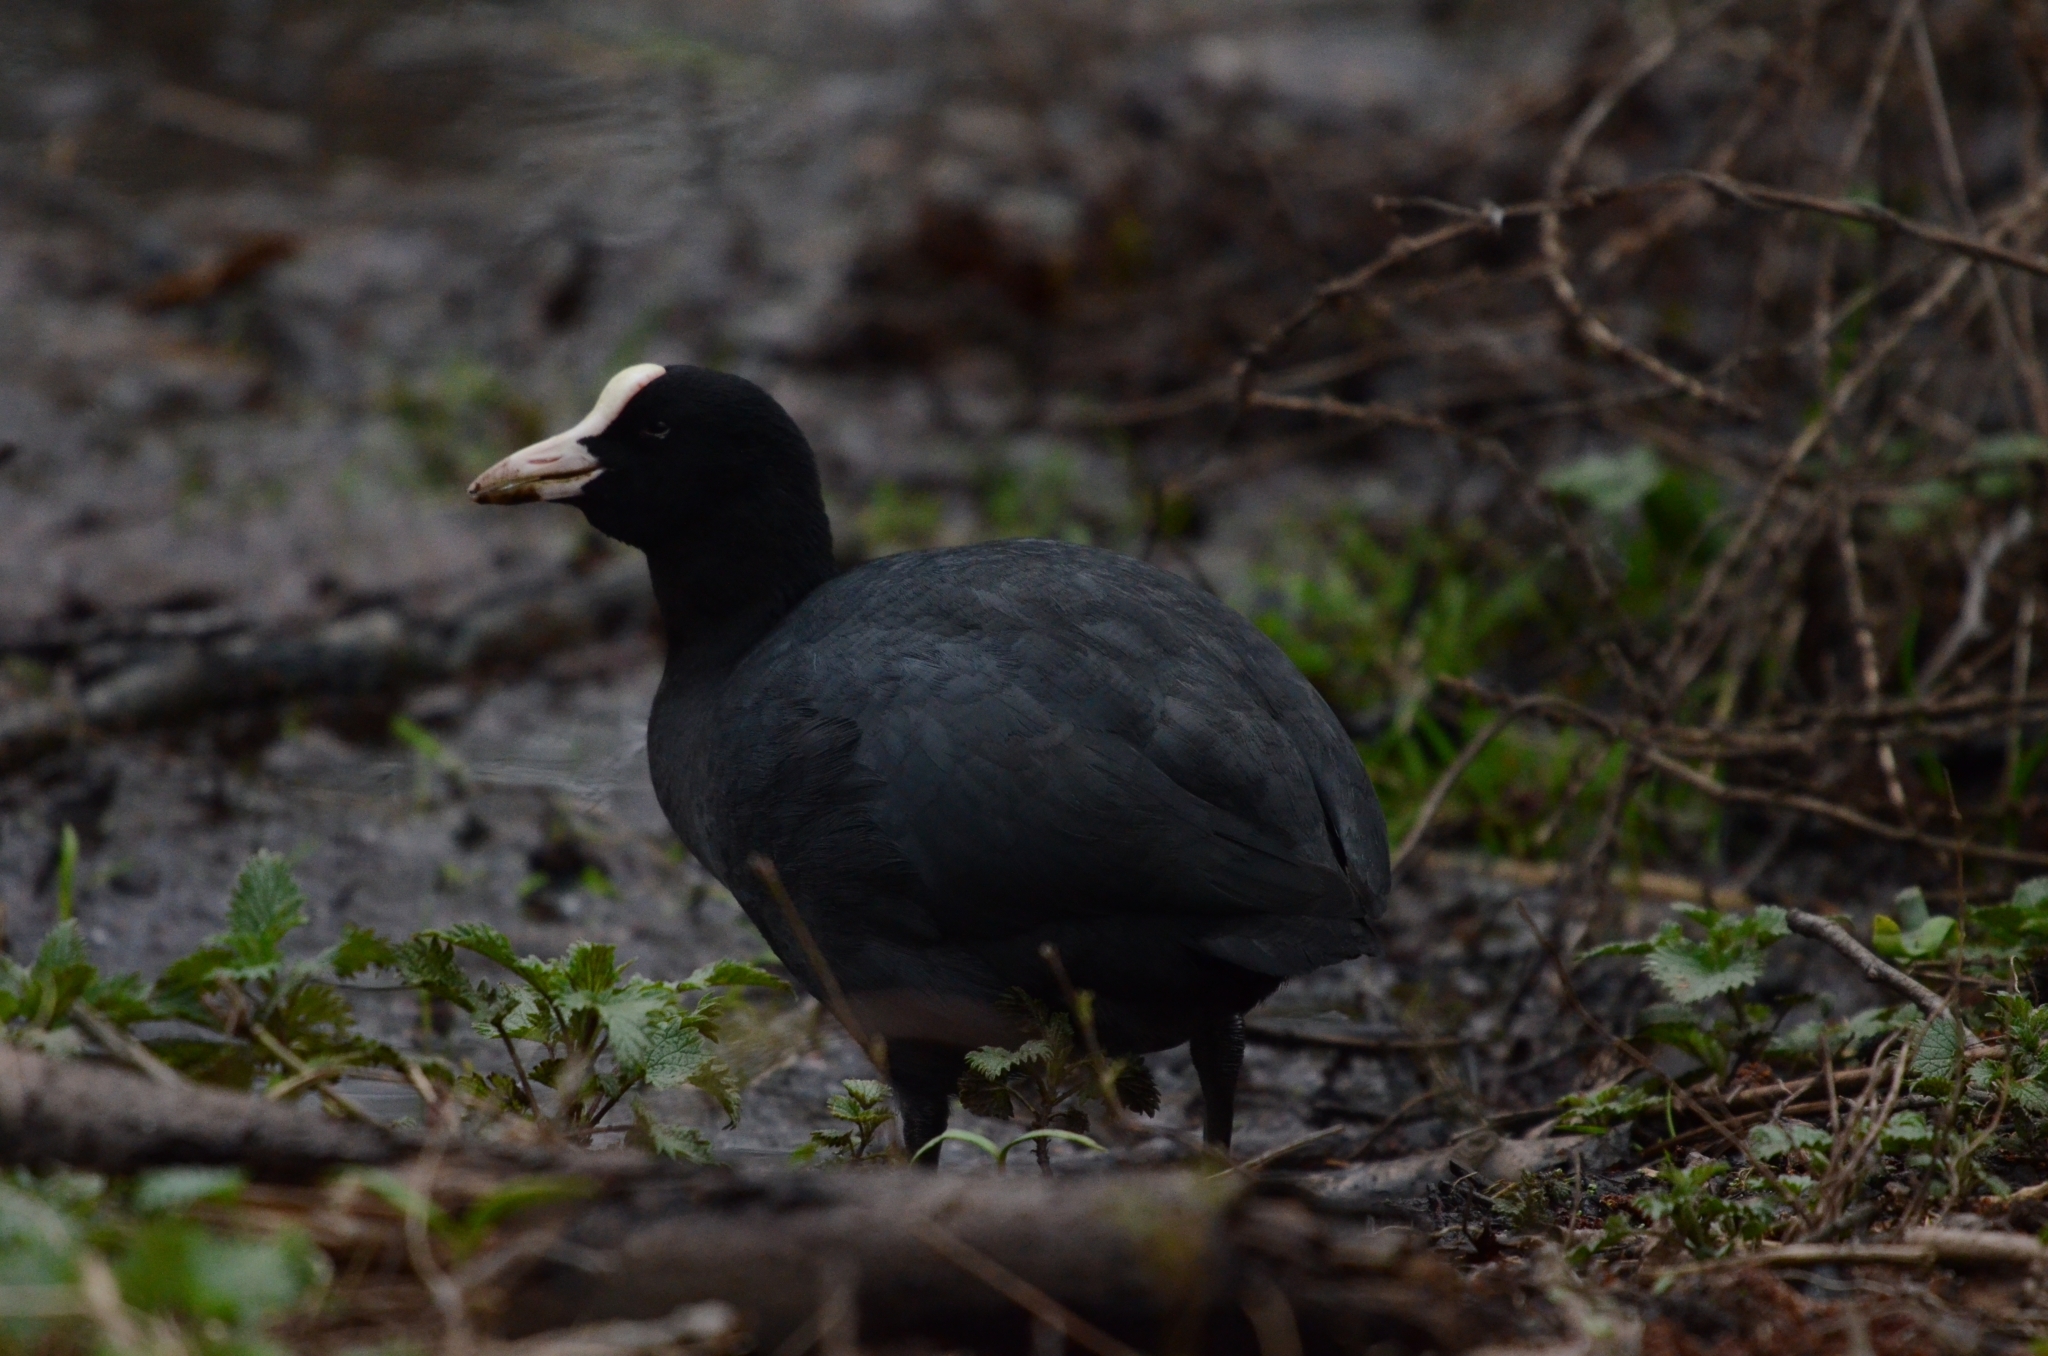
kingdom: Animalia
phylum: Chordata
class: Aves
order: Gruiformes
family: Rallidae
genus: Fulica
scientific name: Fulica atra
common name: Eurasian coot
